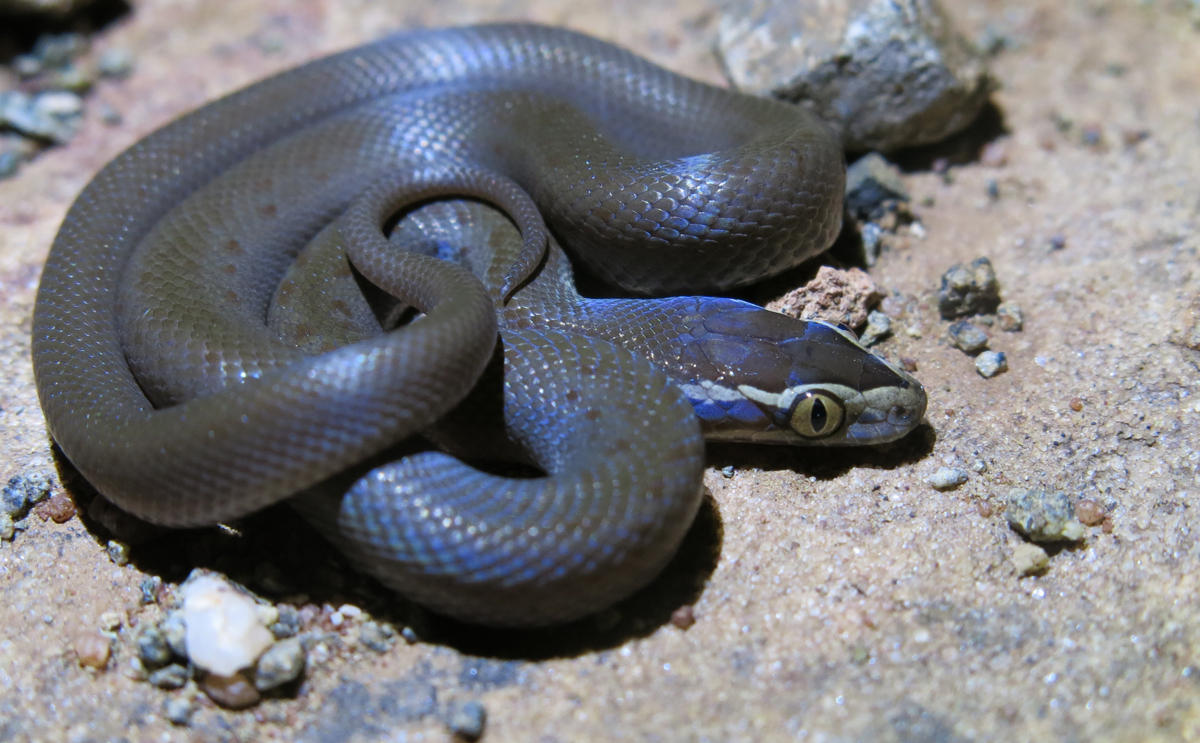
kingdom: Animalia
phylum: Chordata
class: Squamata
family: Lamprophiidae
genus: Boaedon
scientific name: Boaedon capensis
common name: Brown house snake
